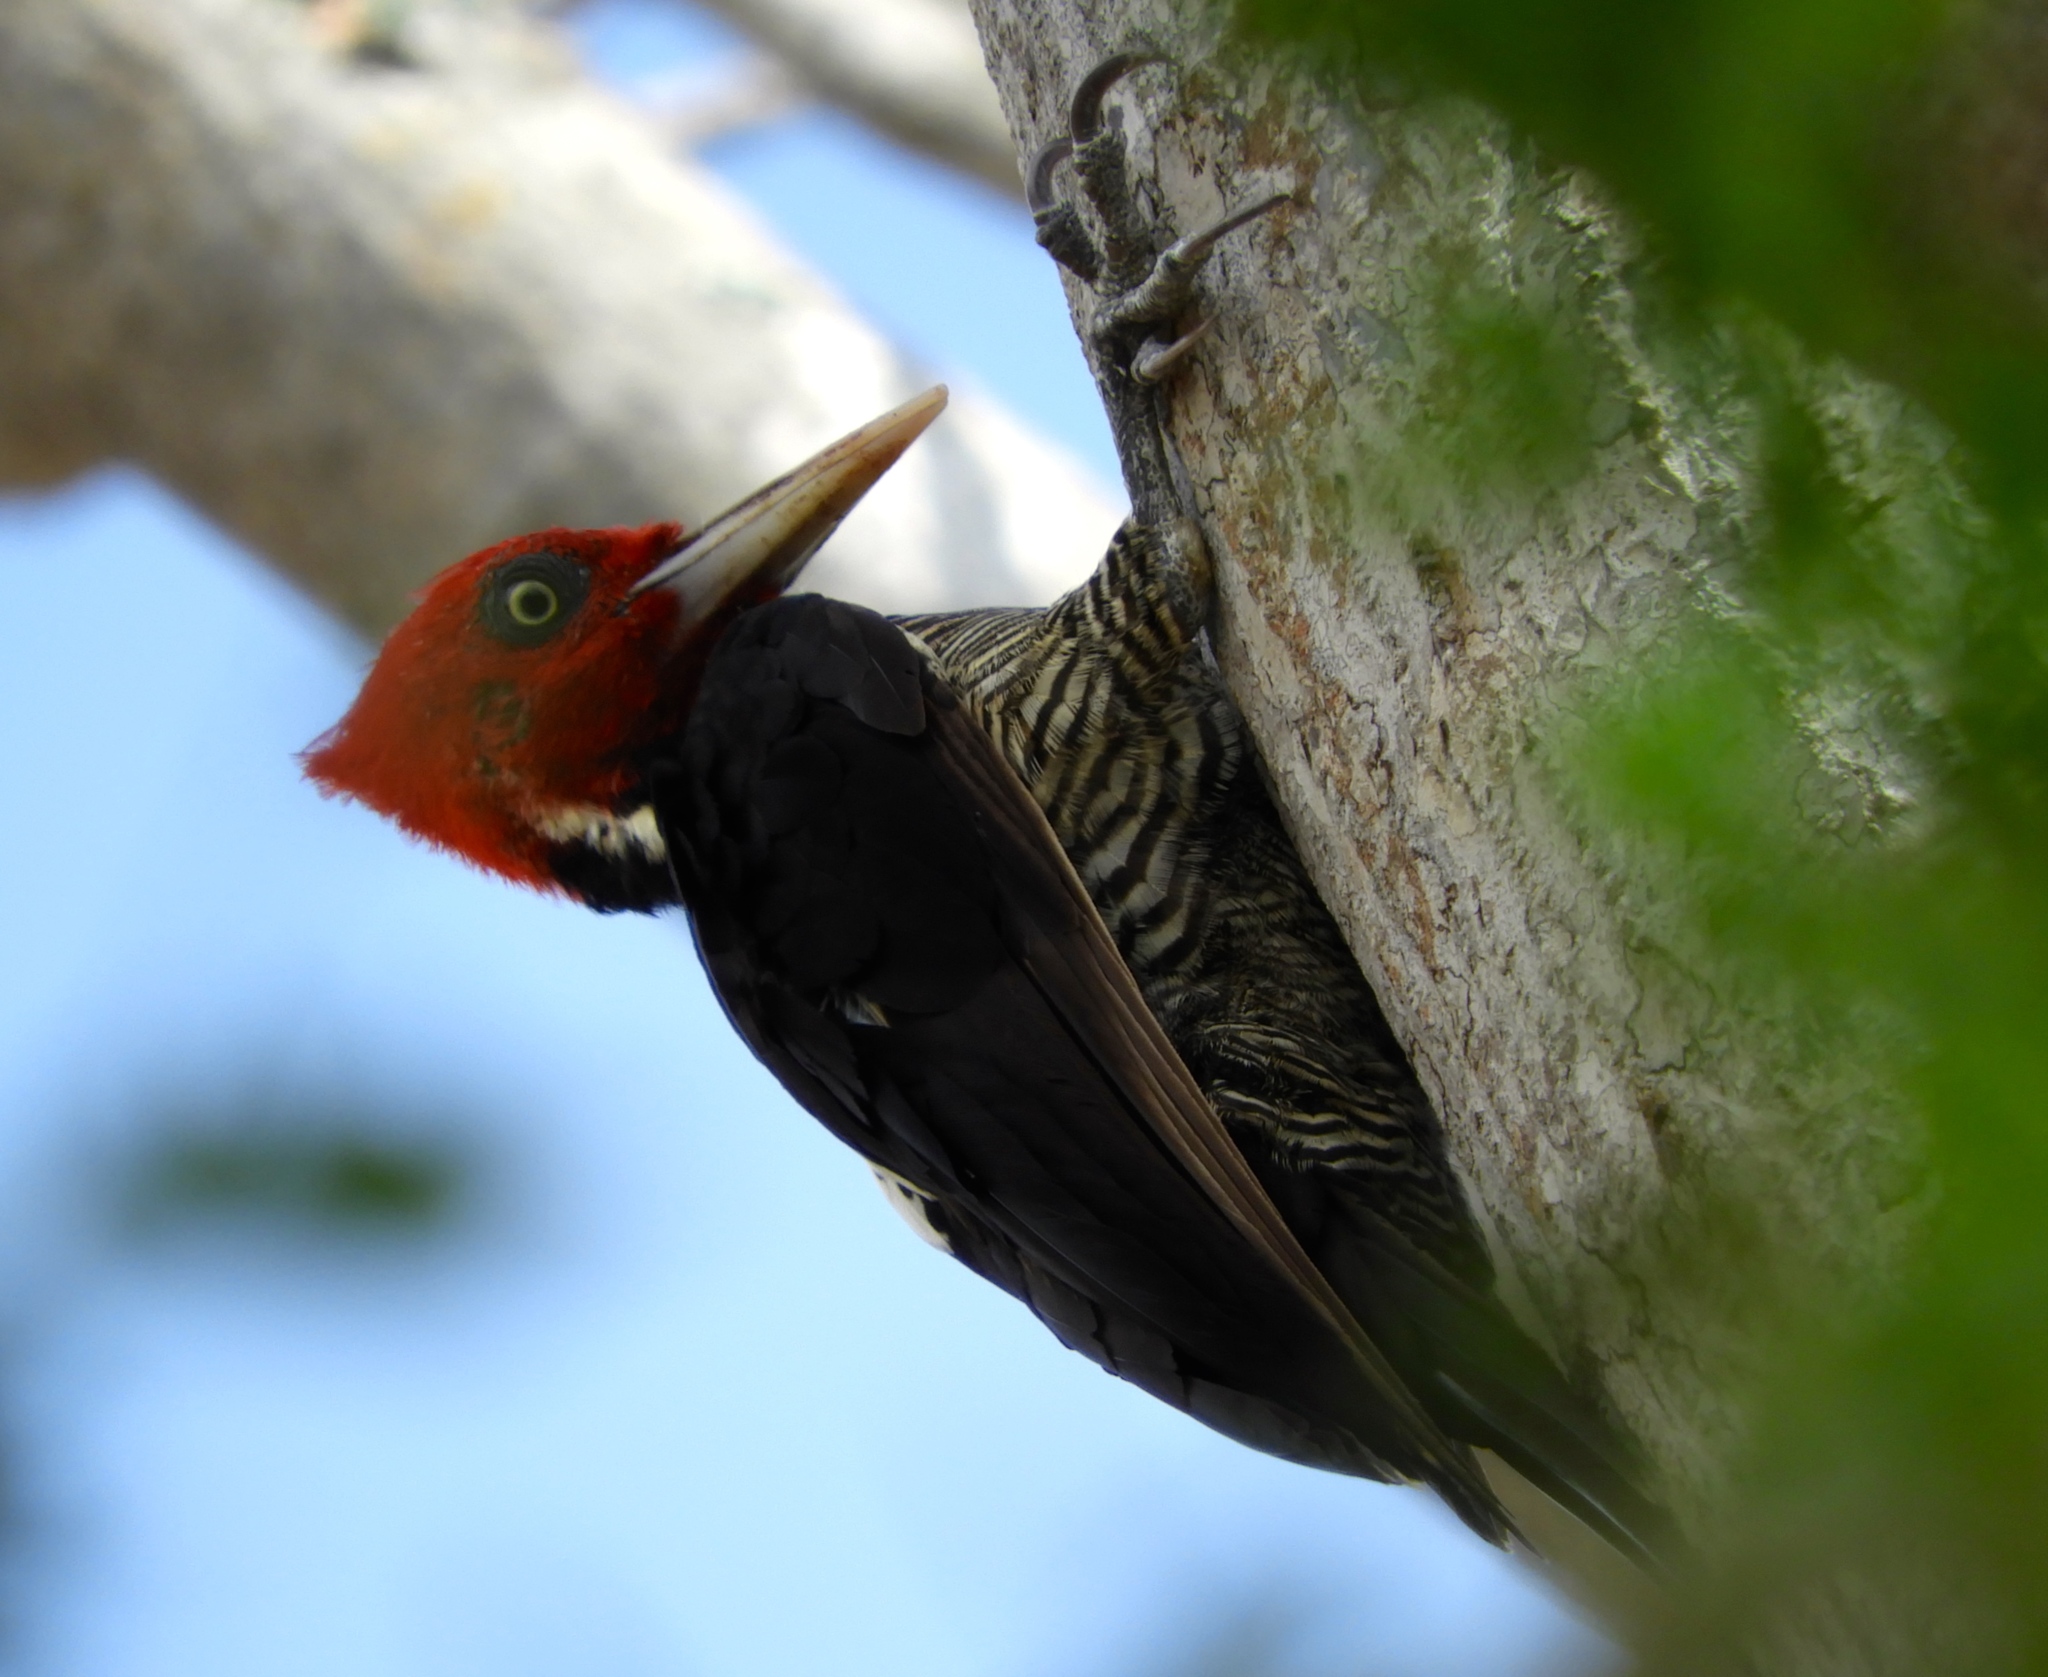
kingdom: Animalia
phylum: Chordata
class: Aves
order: Piciformes
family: Picidae
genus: Campephilus
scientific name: Campephilus guatemalensis
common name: Pale-billed woodpecker
